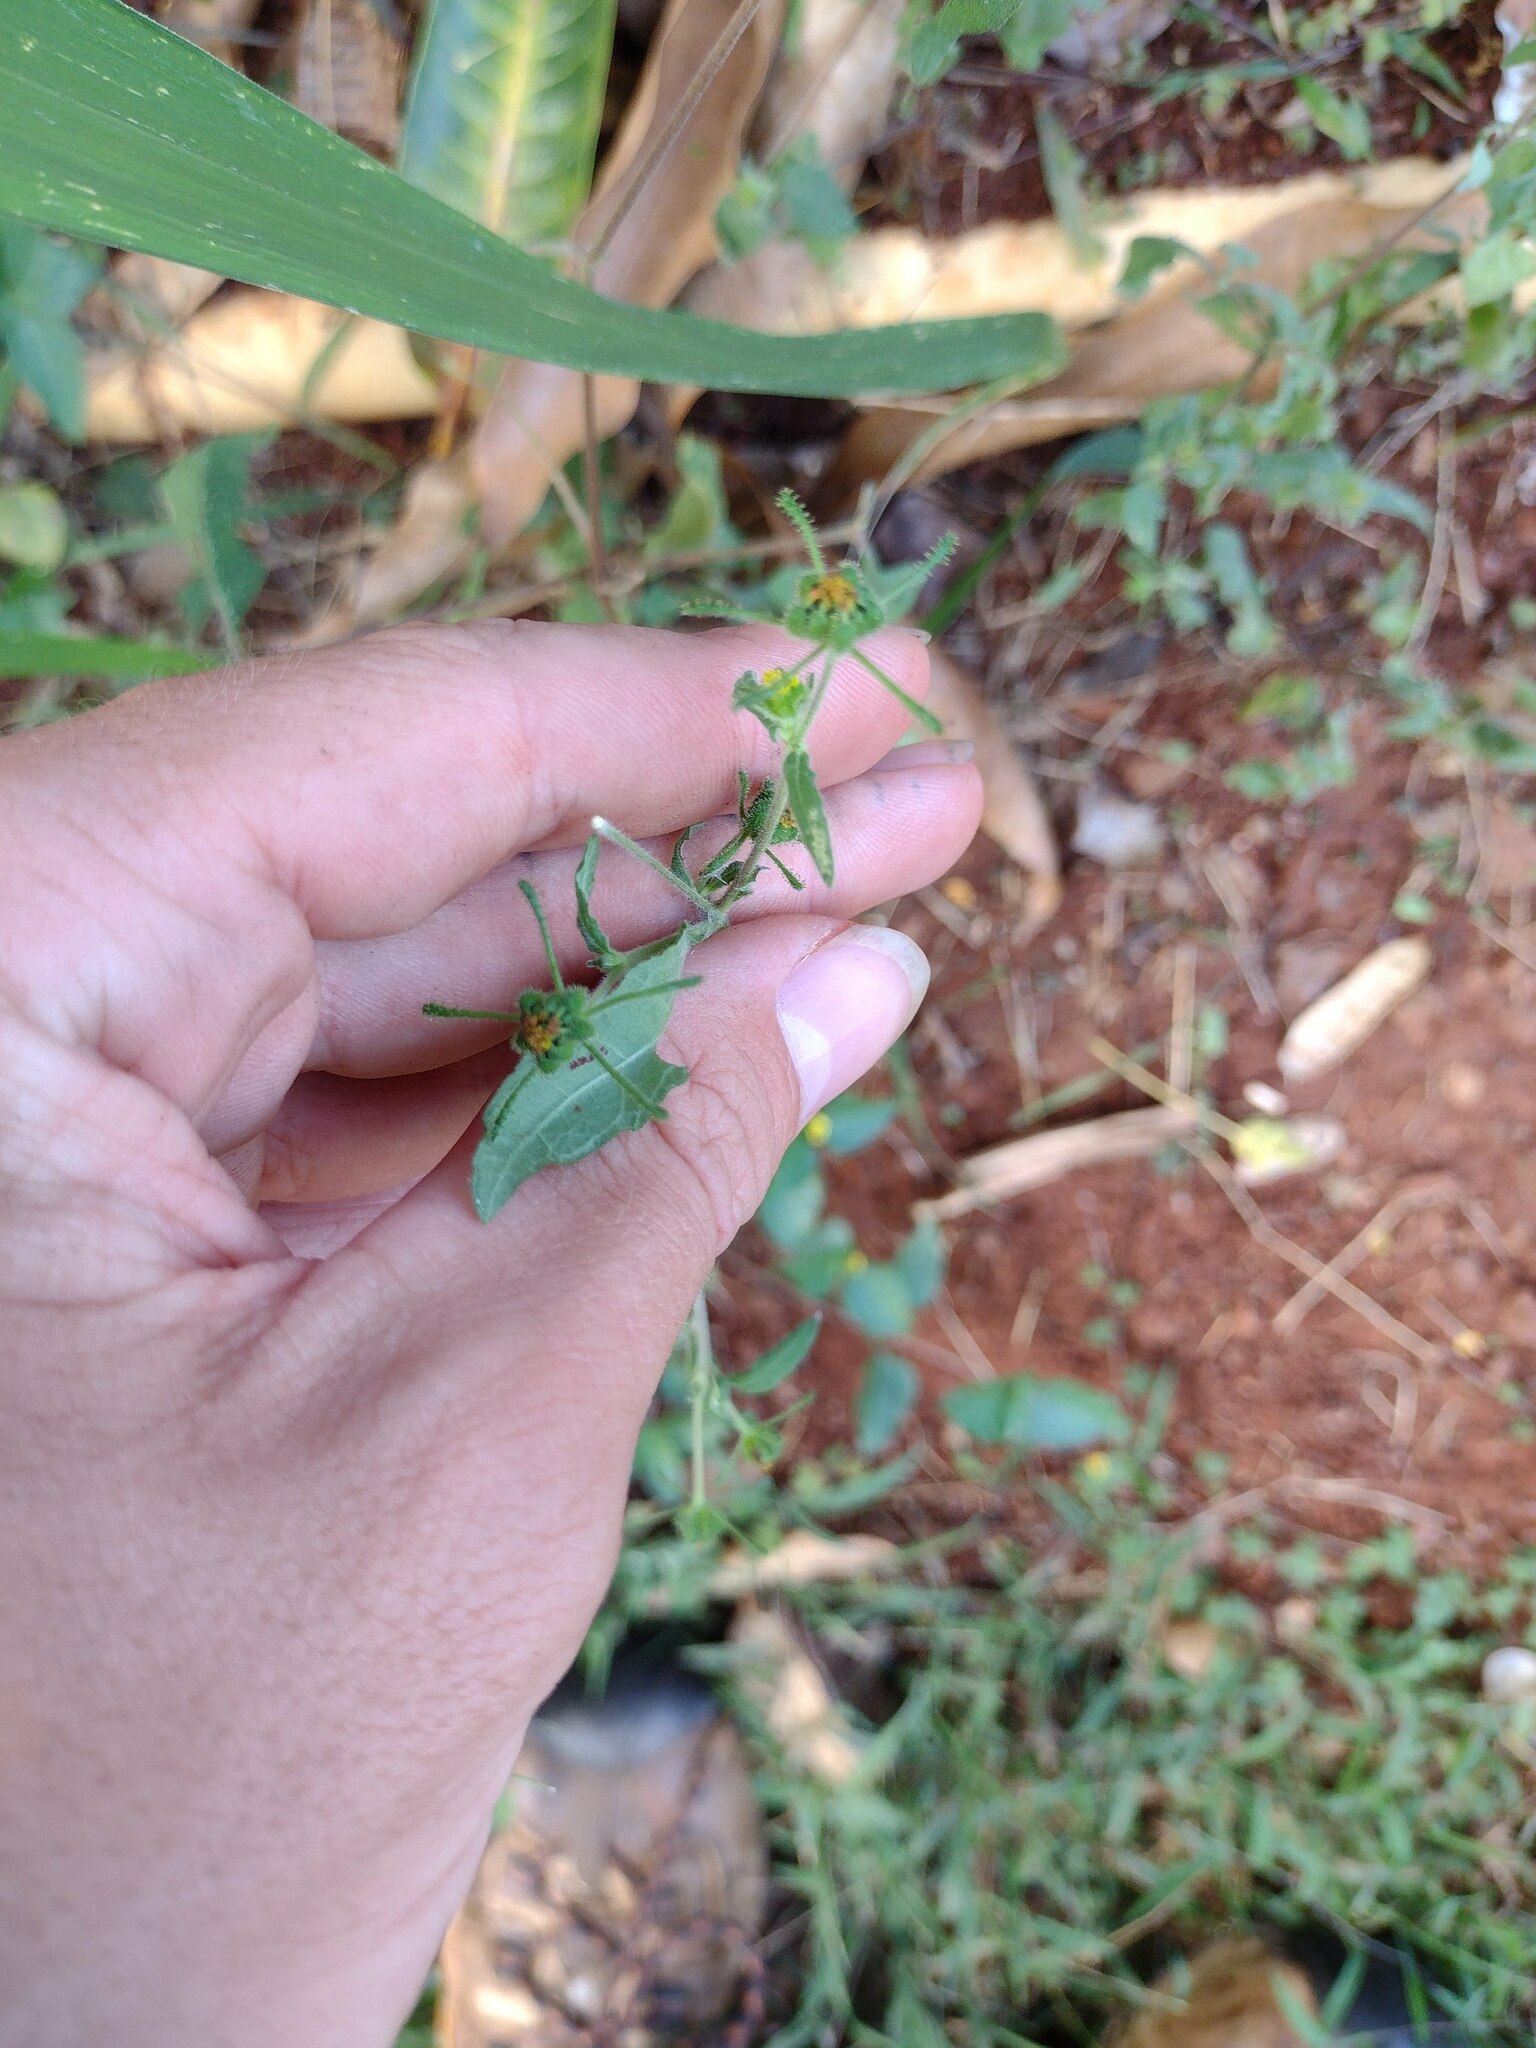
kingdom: Plantae
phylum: Tracheophyta
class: Magnoliopsida
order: Asterales
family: Asteraceae
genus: Sigesbeckia
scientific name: Sigesbeckia orientalis
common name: Eastern st paul's-wort
